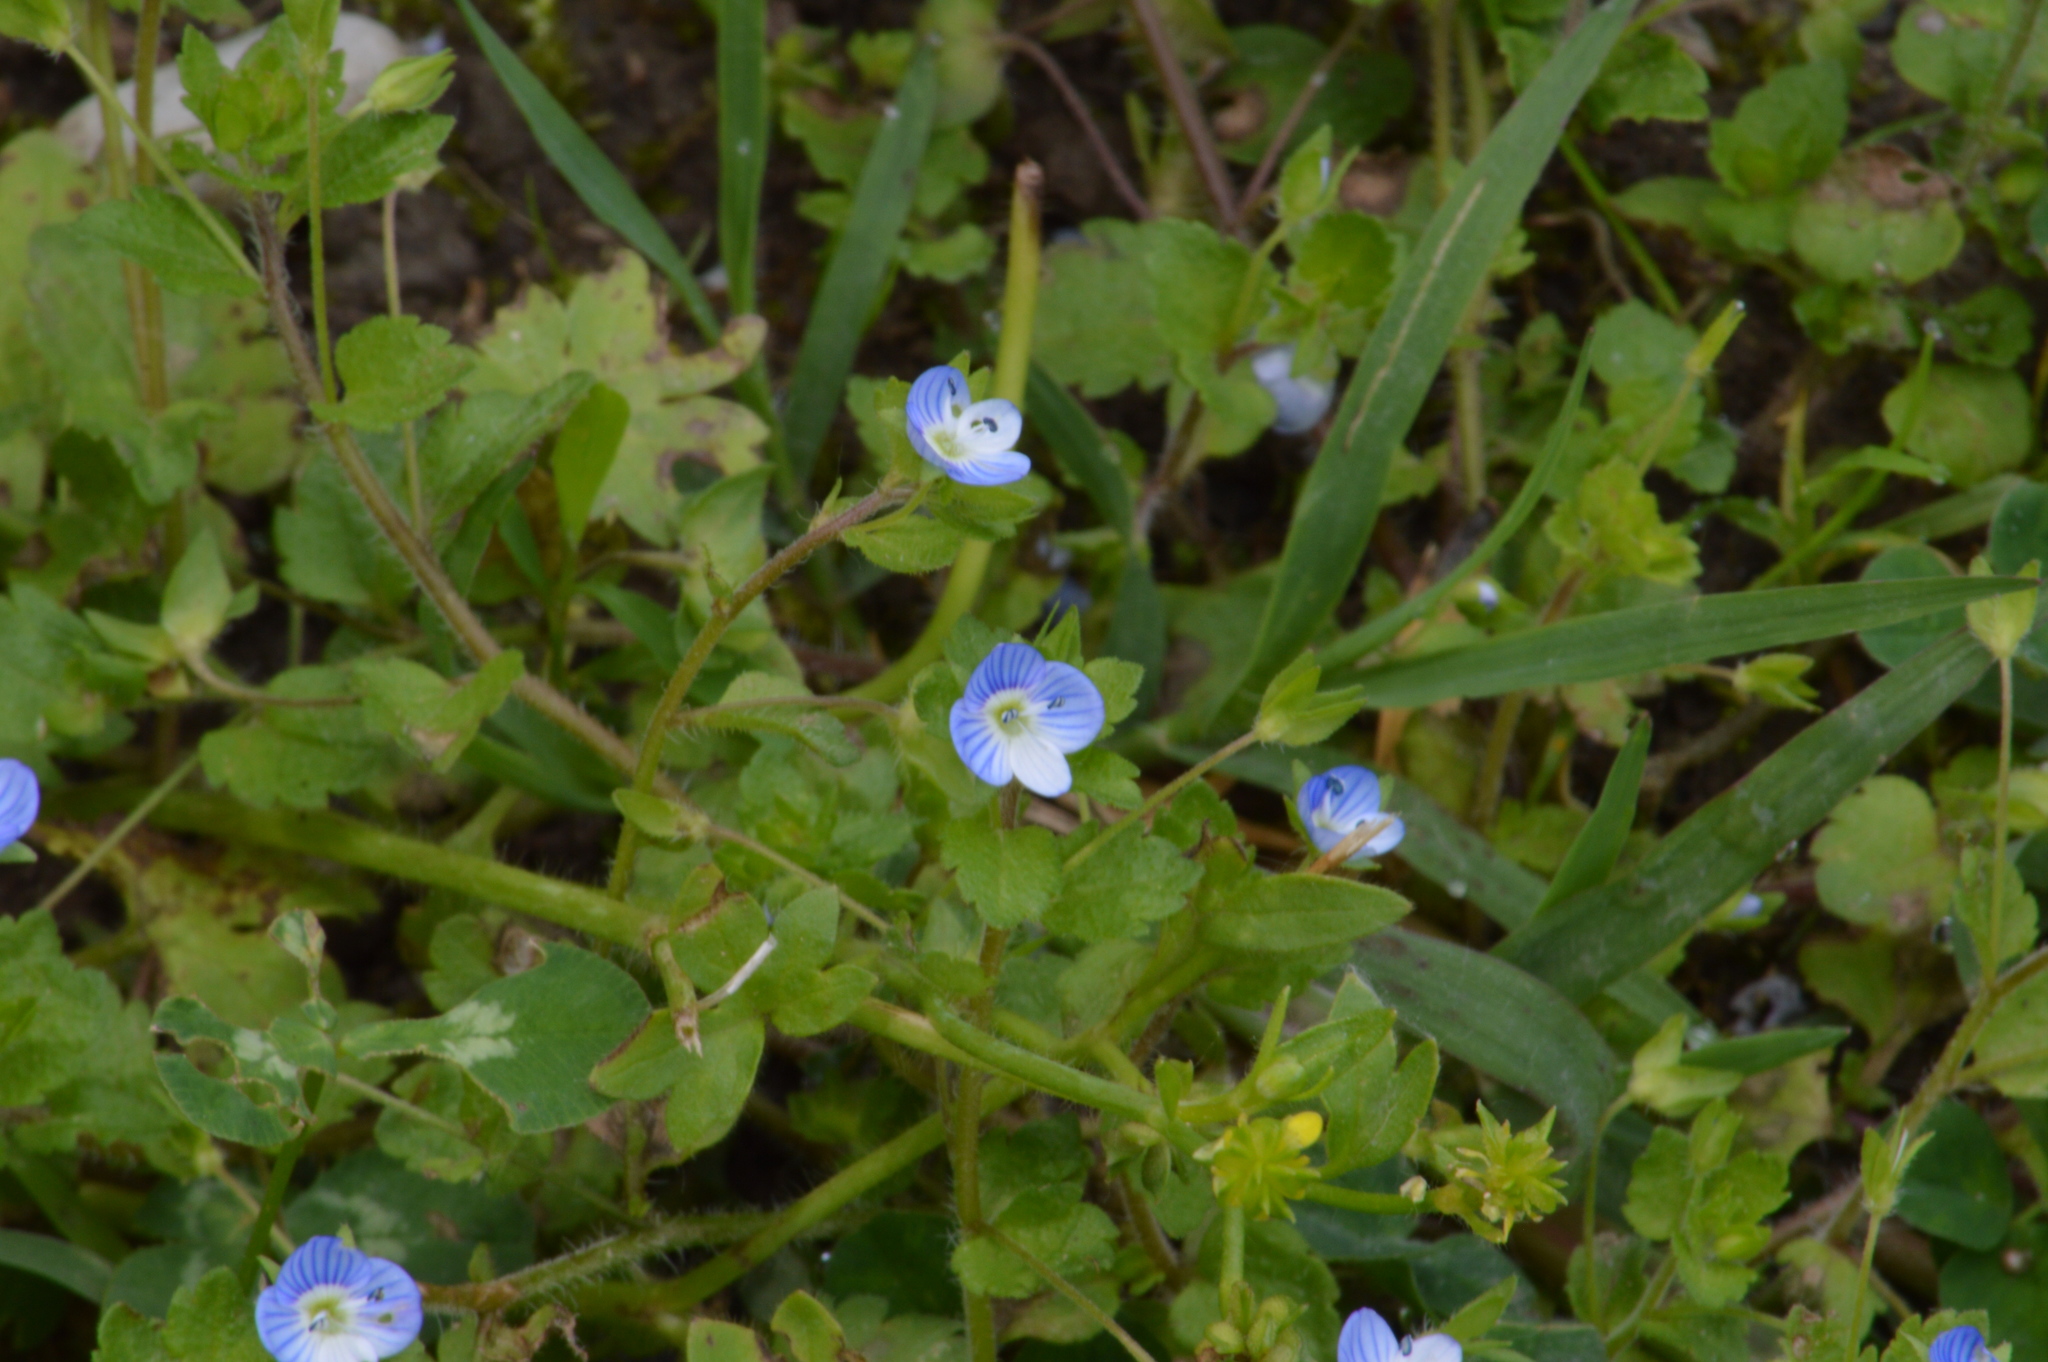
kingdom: Plantae
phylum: Tracheophyta
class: Magnoliopsida
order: Lamiales
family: Plantaginaceae
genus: Veronica
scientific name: Veronica persica
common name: Common field-speedwell
